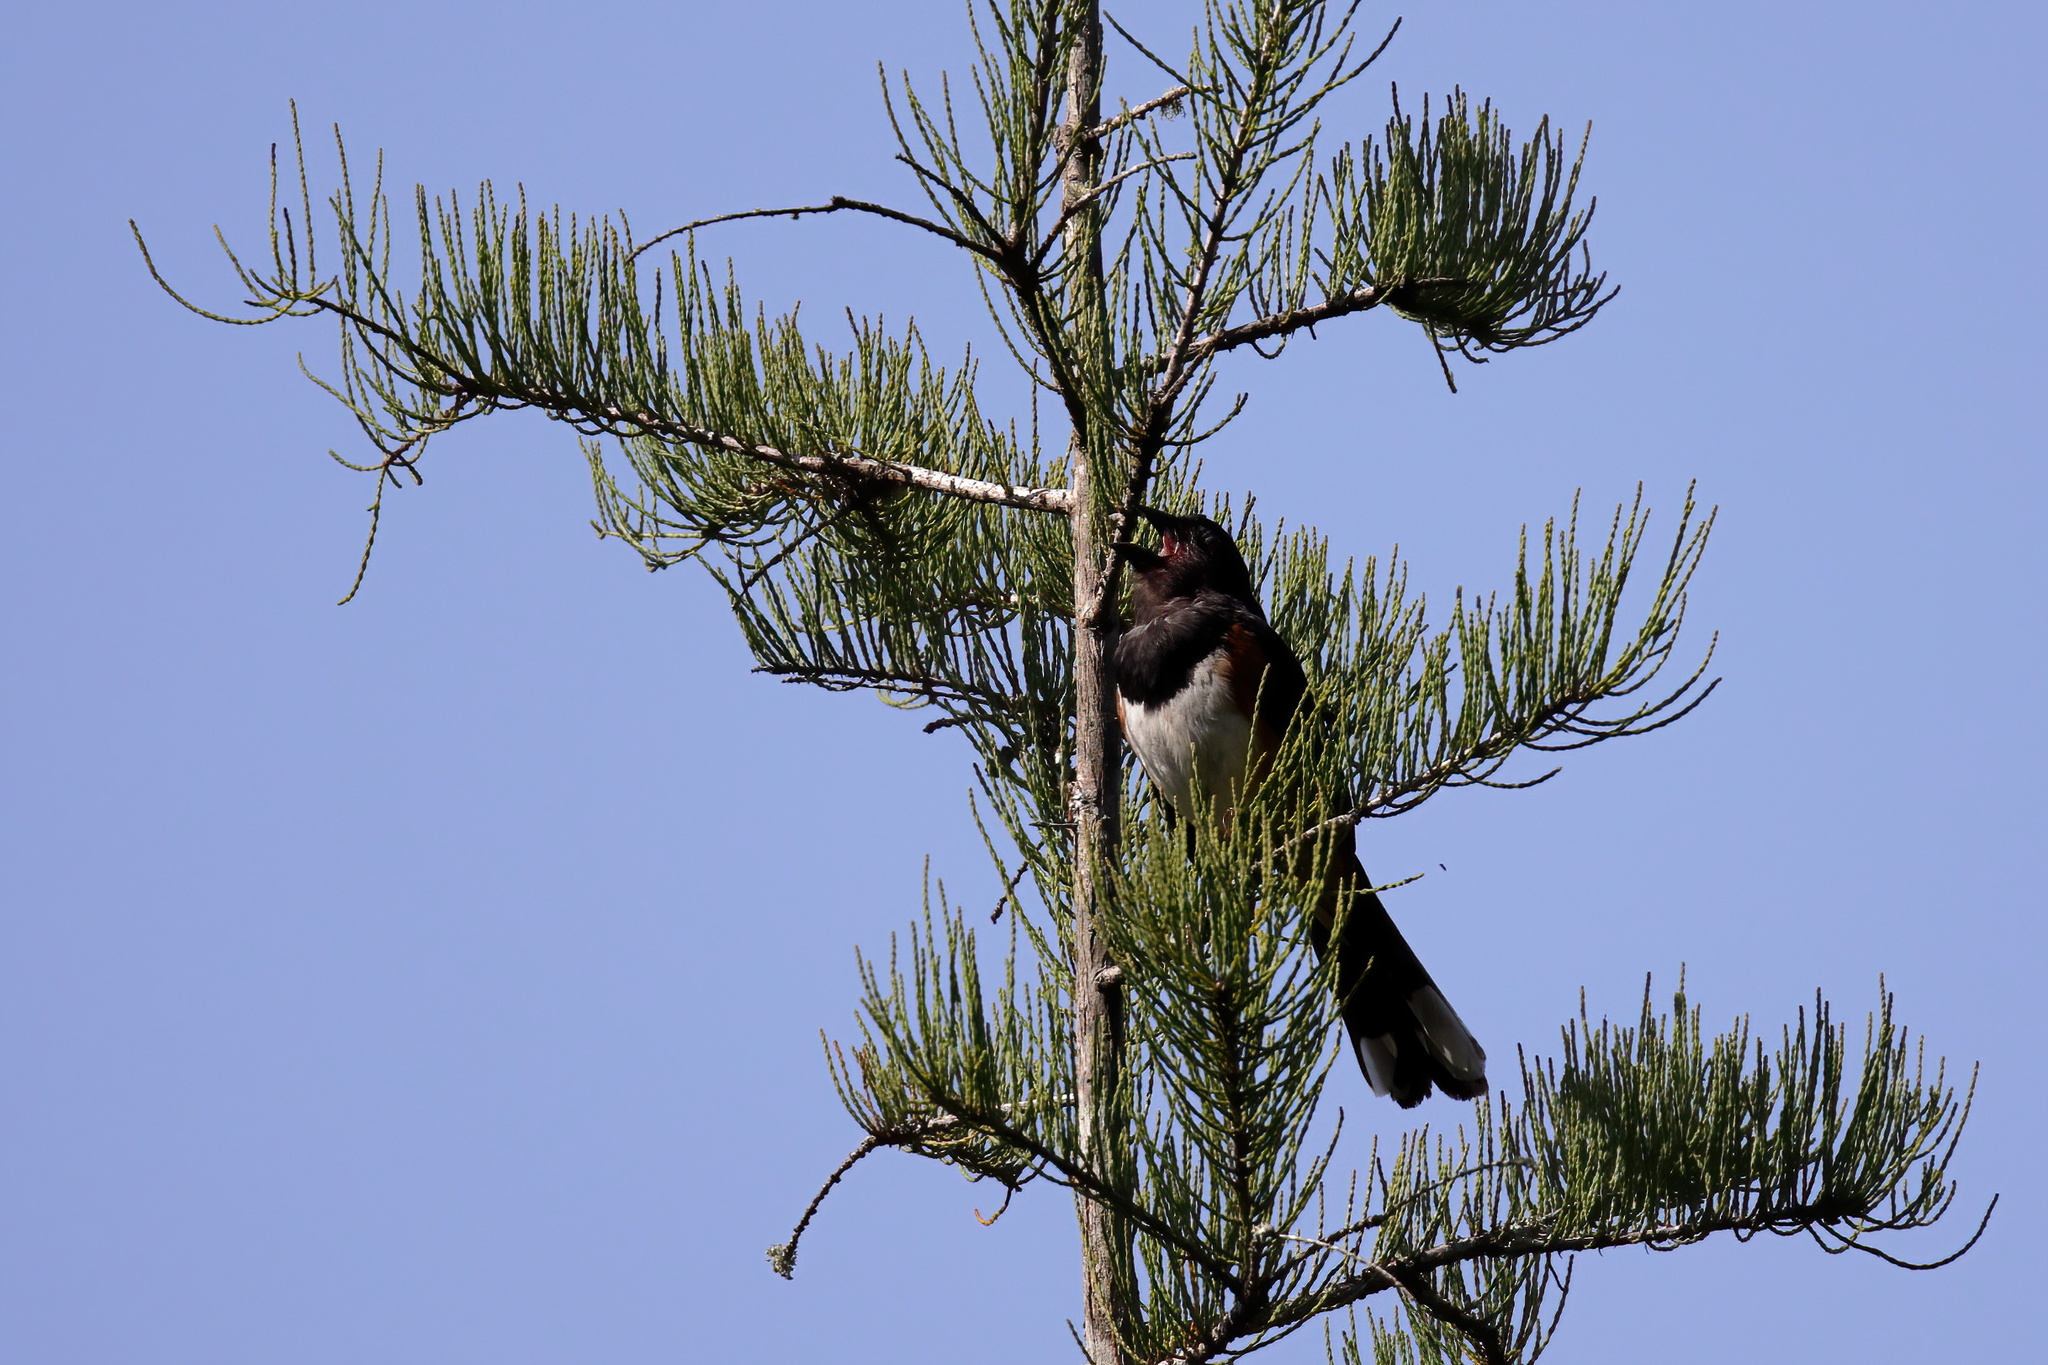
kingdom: Animalia
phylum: Chordata
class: Aves
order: Passeriformes
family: Passerellidae
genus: Pipilo
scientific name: Pipilo erythrophthalmus
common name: Eastern towhee
